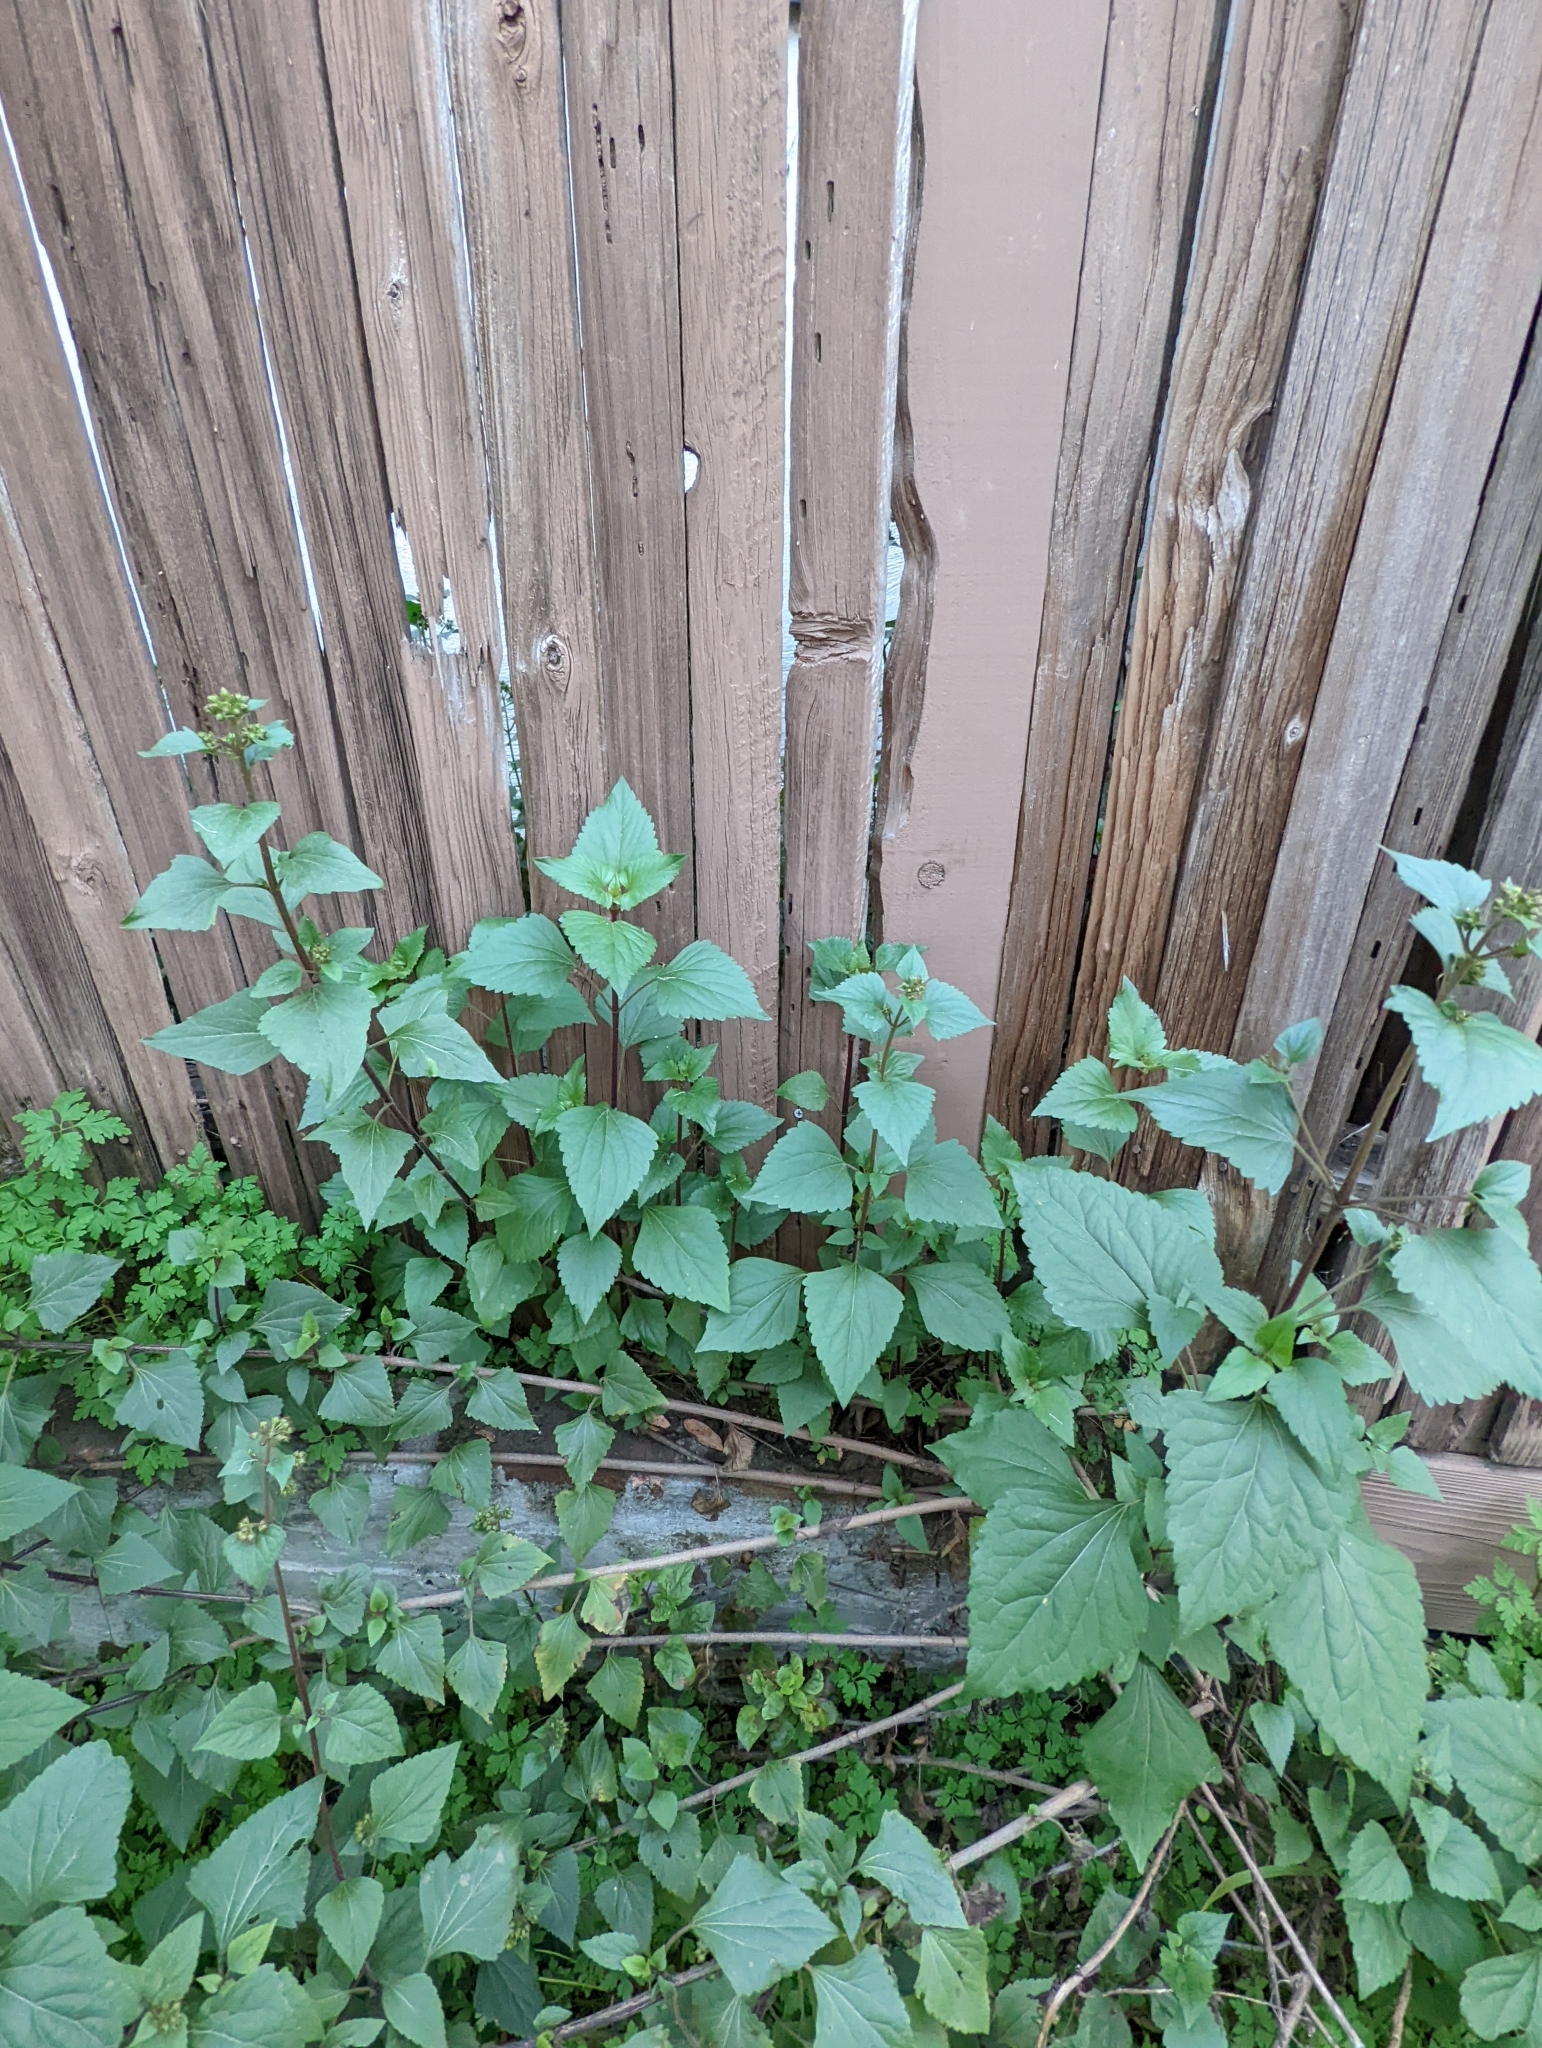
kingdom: Plantae
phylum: Tracheophyta
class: Magnoliopsida
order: Asterales
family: Asteraceae
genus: Ageratina
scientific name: Ageratina adenophora
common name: Sticky snakeroot
